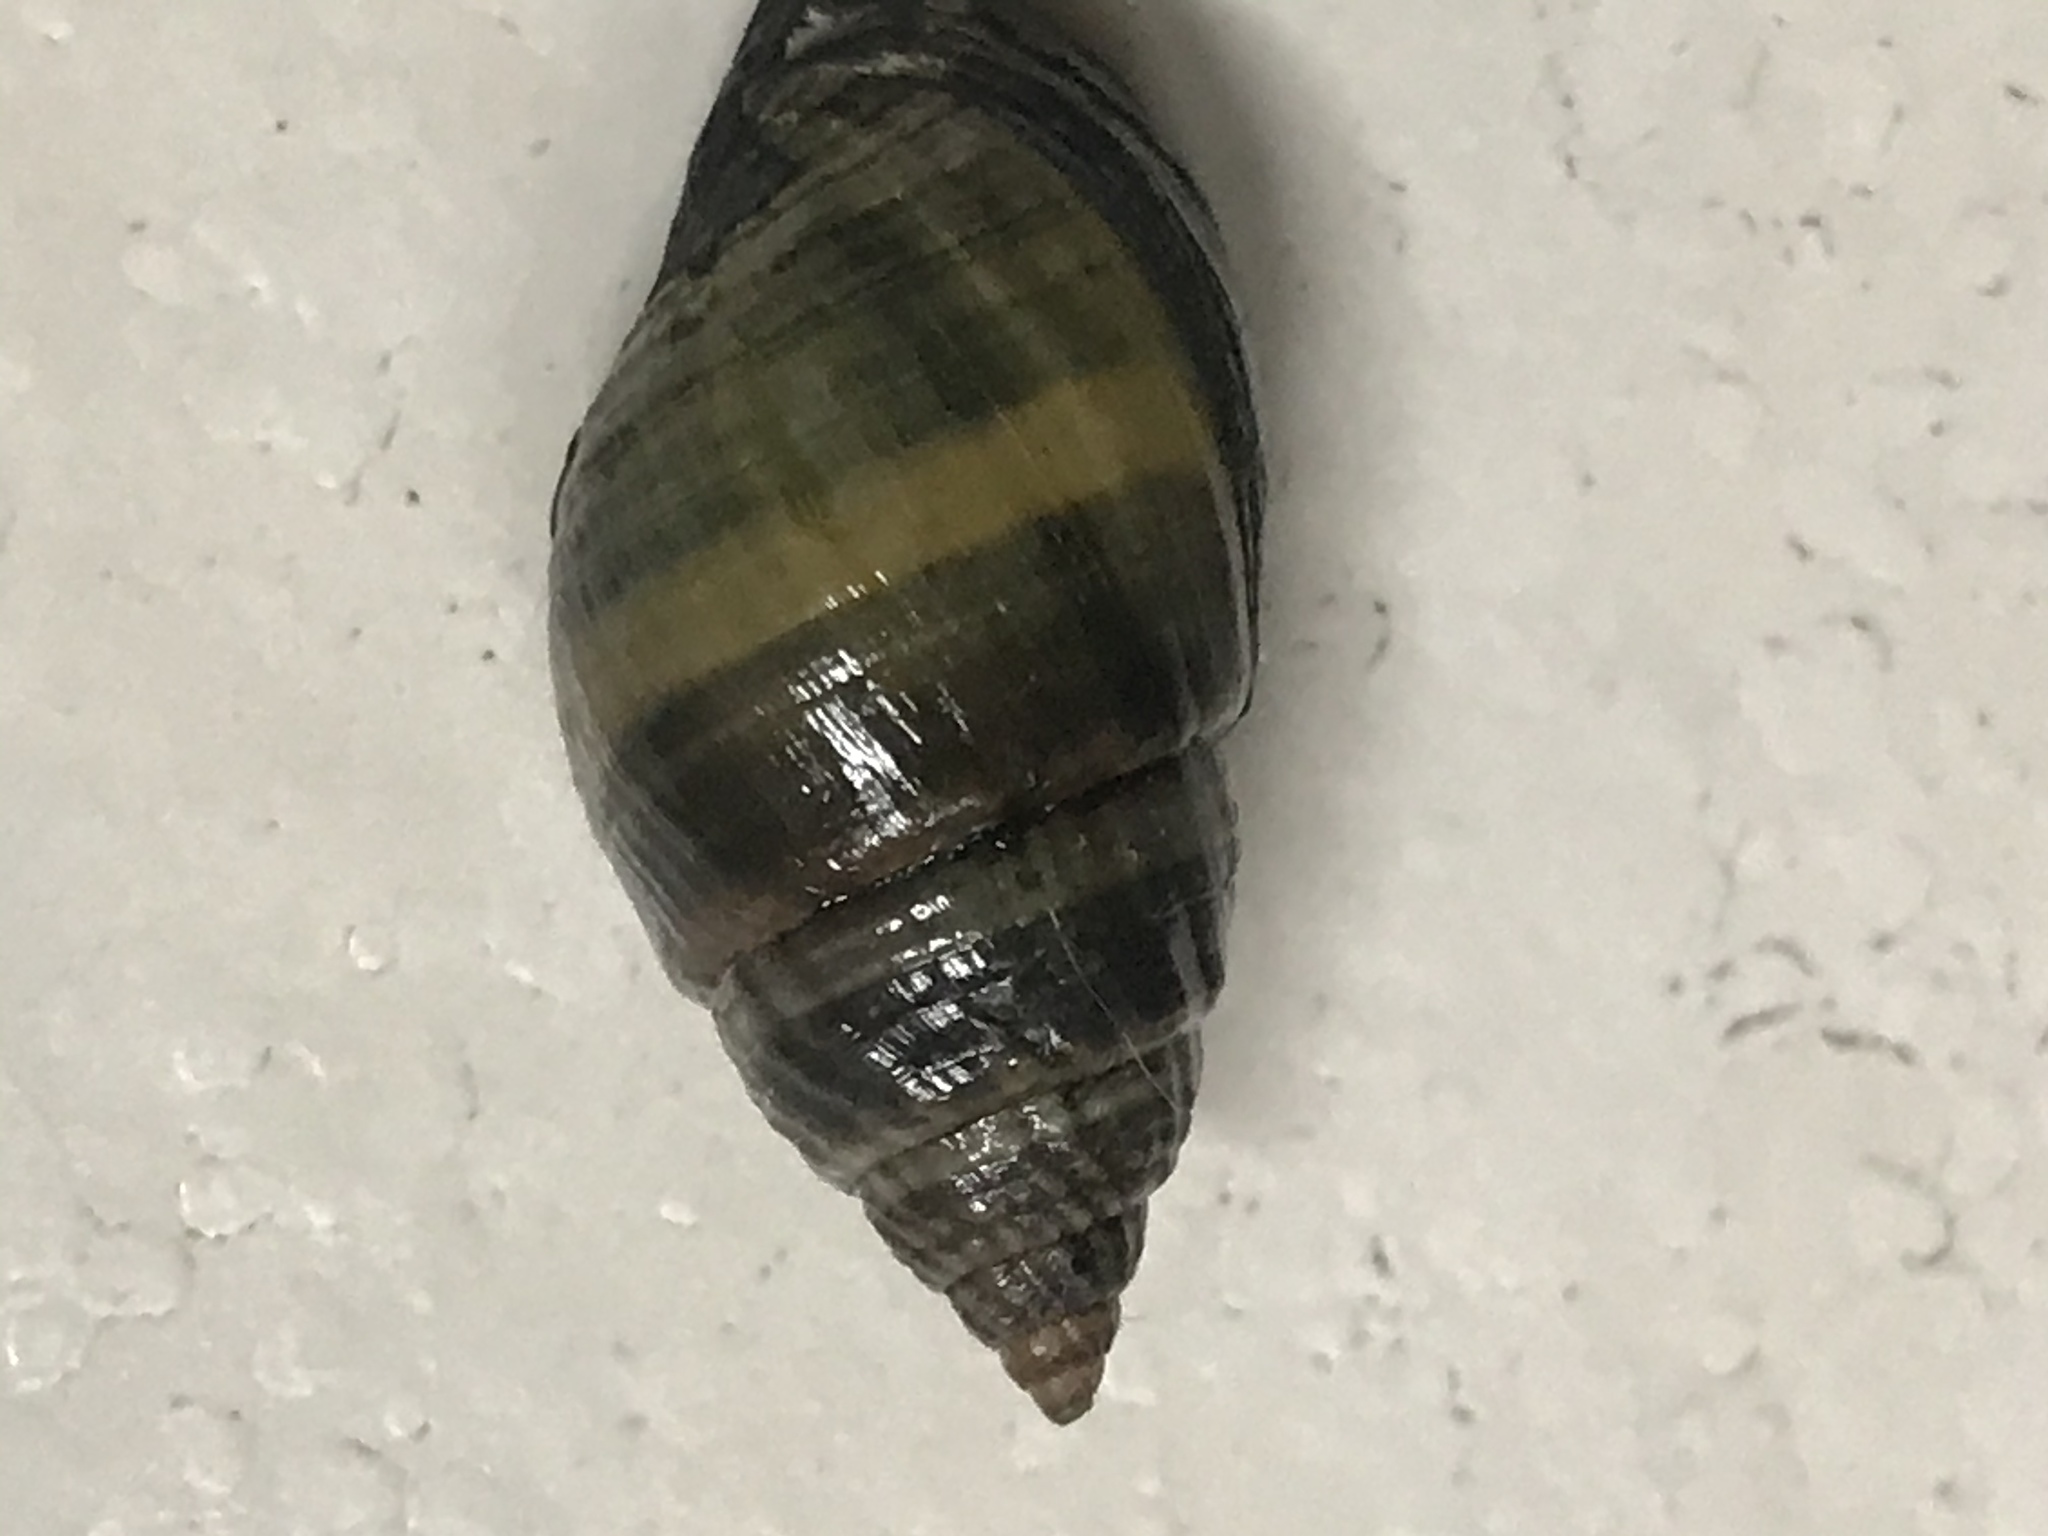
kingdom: Animalia
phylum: Mollusca
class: Gastropoda
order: Neogastropoda
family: Nassariidae
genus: Ilyanassa
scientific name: Ilyanassa obsoleta
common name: Eastern mudsnail
